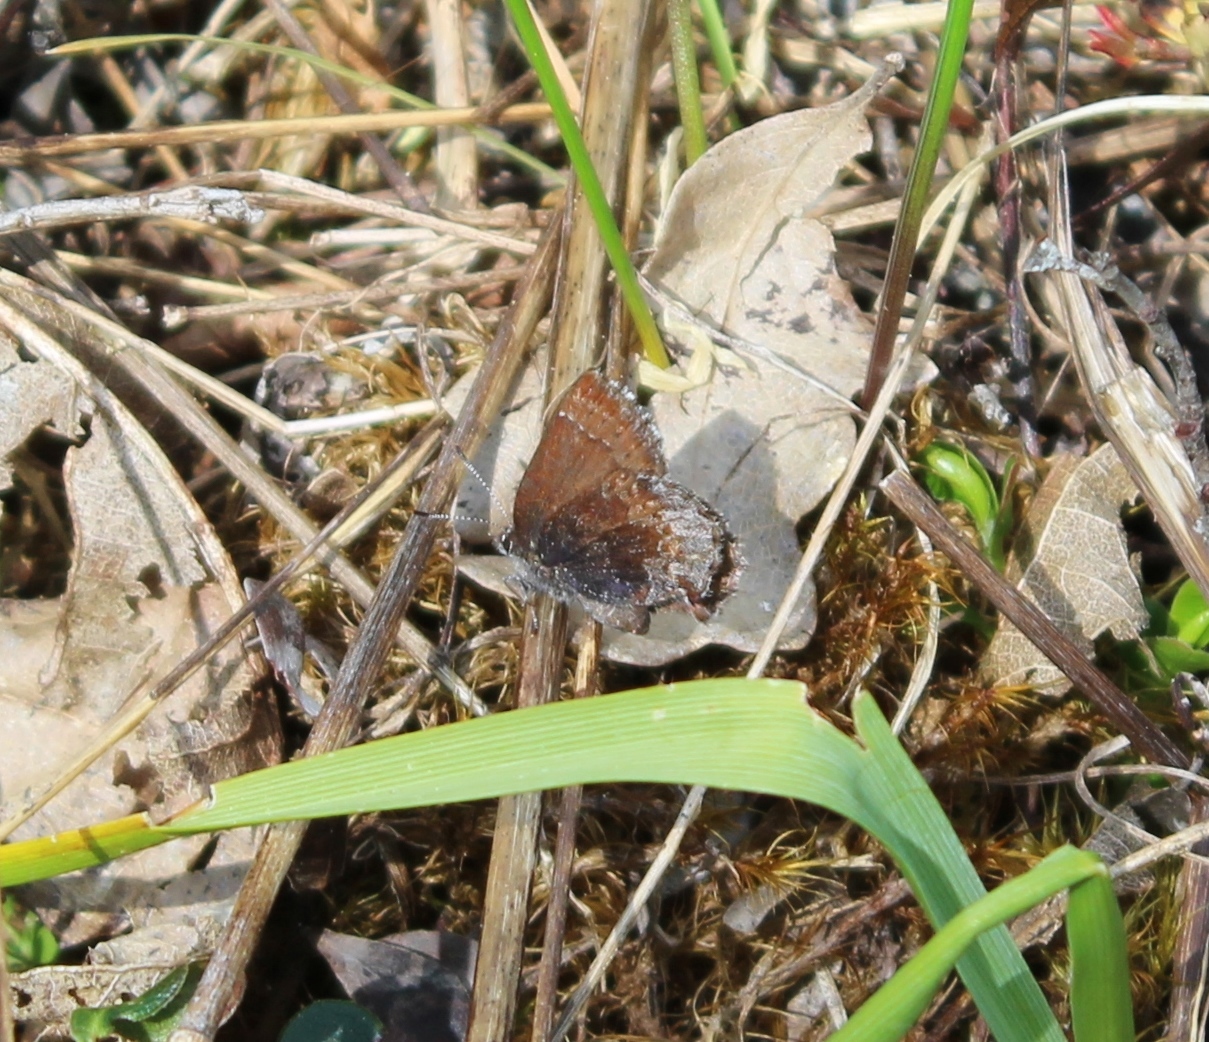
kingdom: Animalia
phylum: Arthropoda
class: Insecta
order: Lepidoptera
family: Lycaenidae
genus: Callophrys
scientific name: Callophrys polios
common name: Hoary elfin
